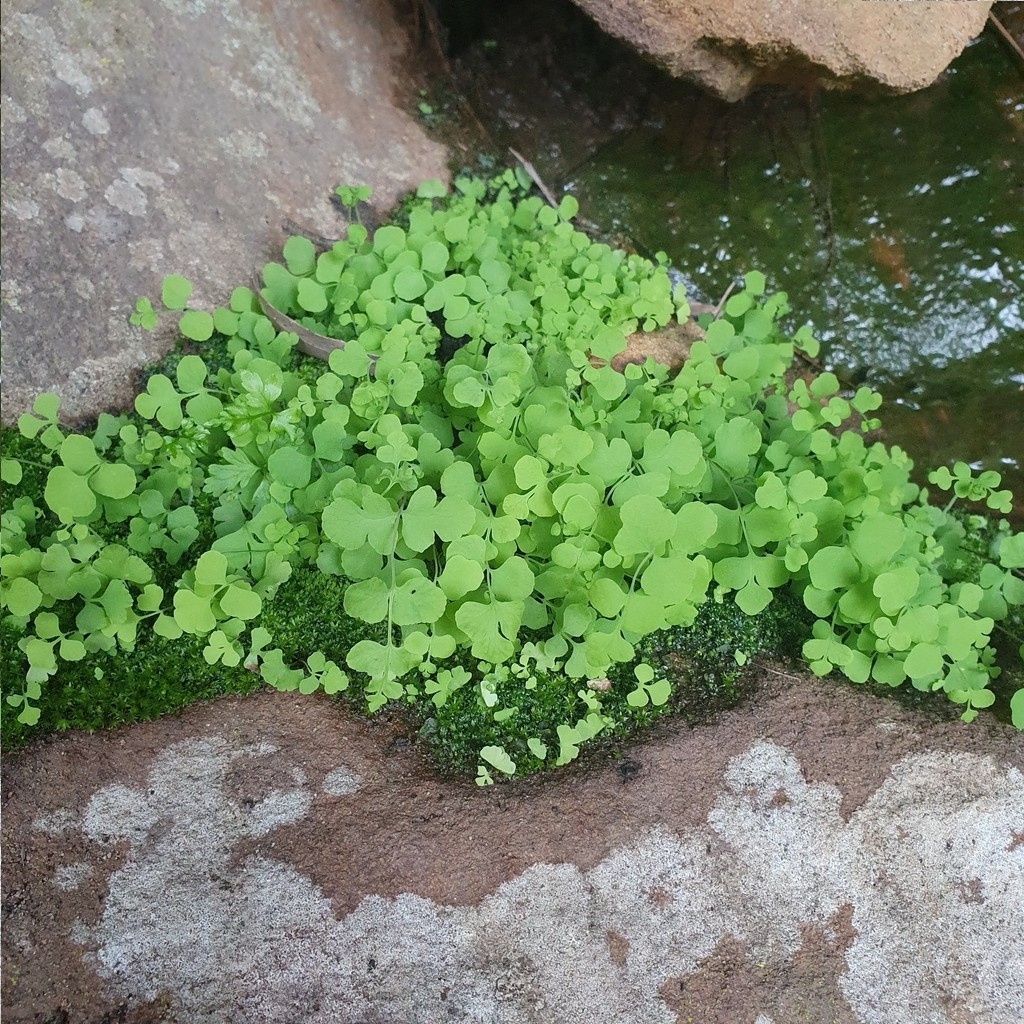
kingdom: Plantae
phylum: Tracheophyta
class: Polypodiopsida
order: Polypodiales
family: Dennstaedtiaceae
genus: Histiopteris
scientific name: Histiopteris incisa
